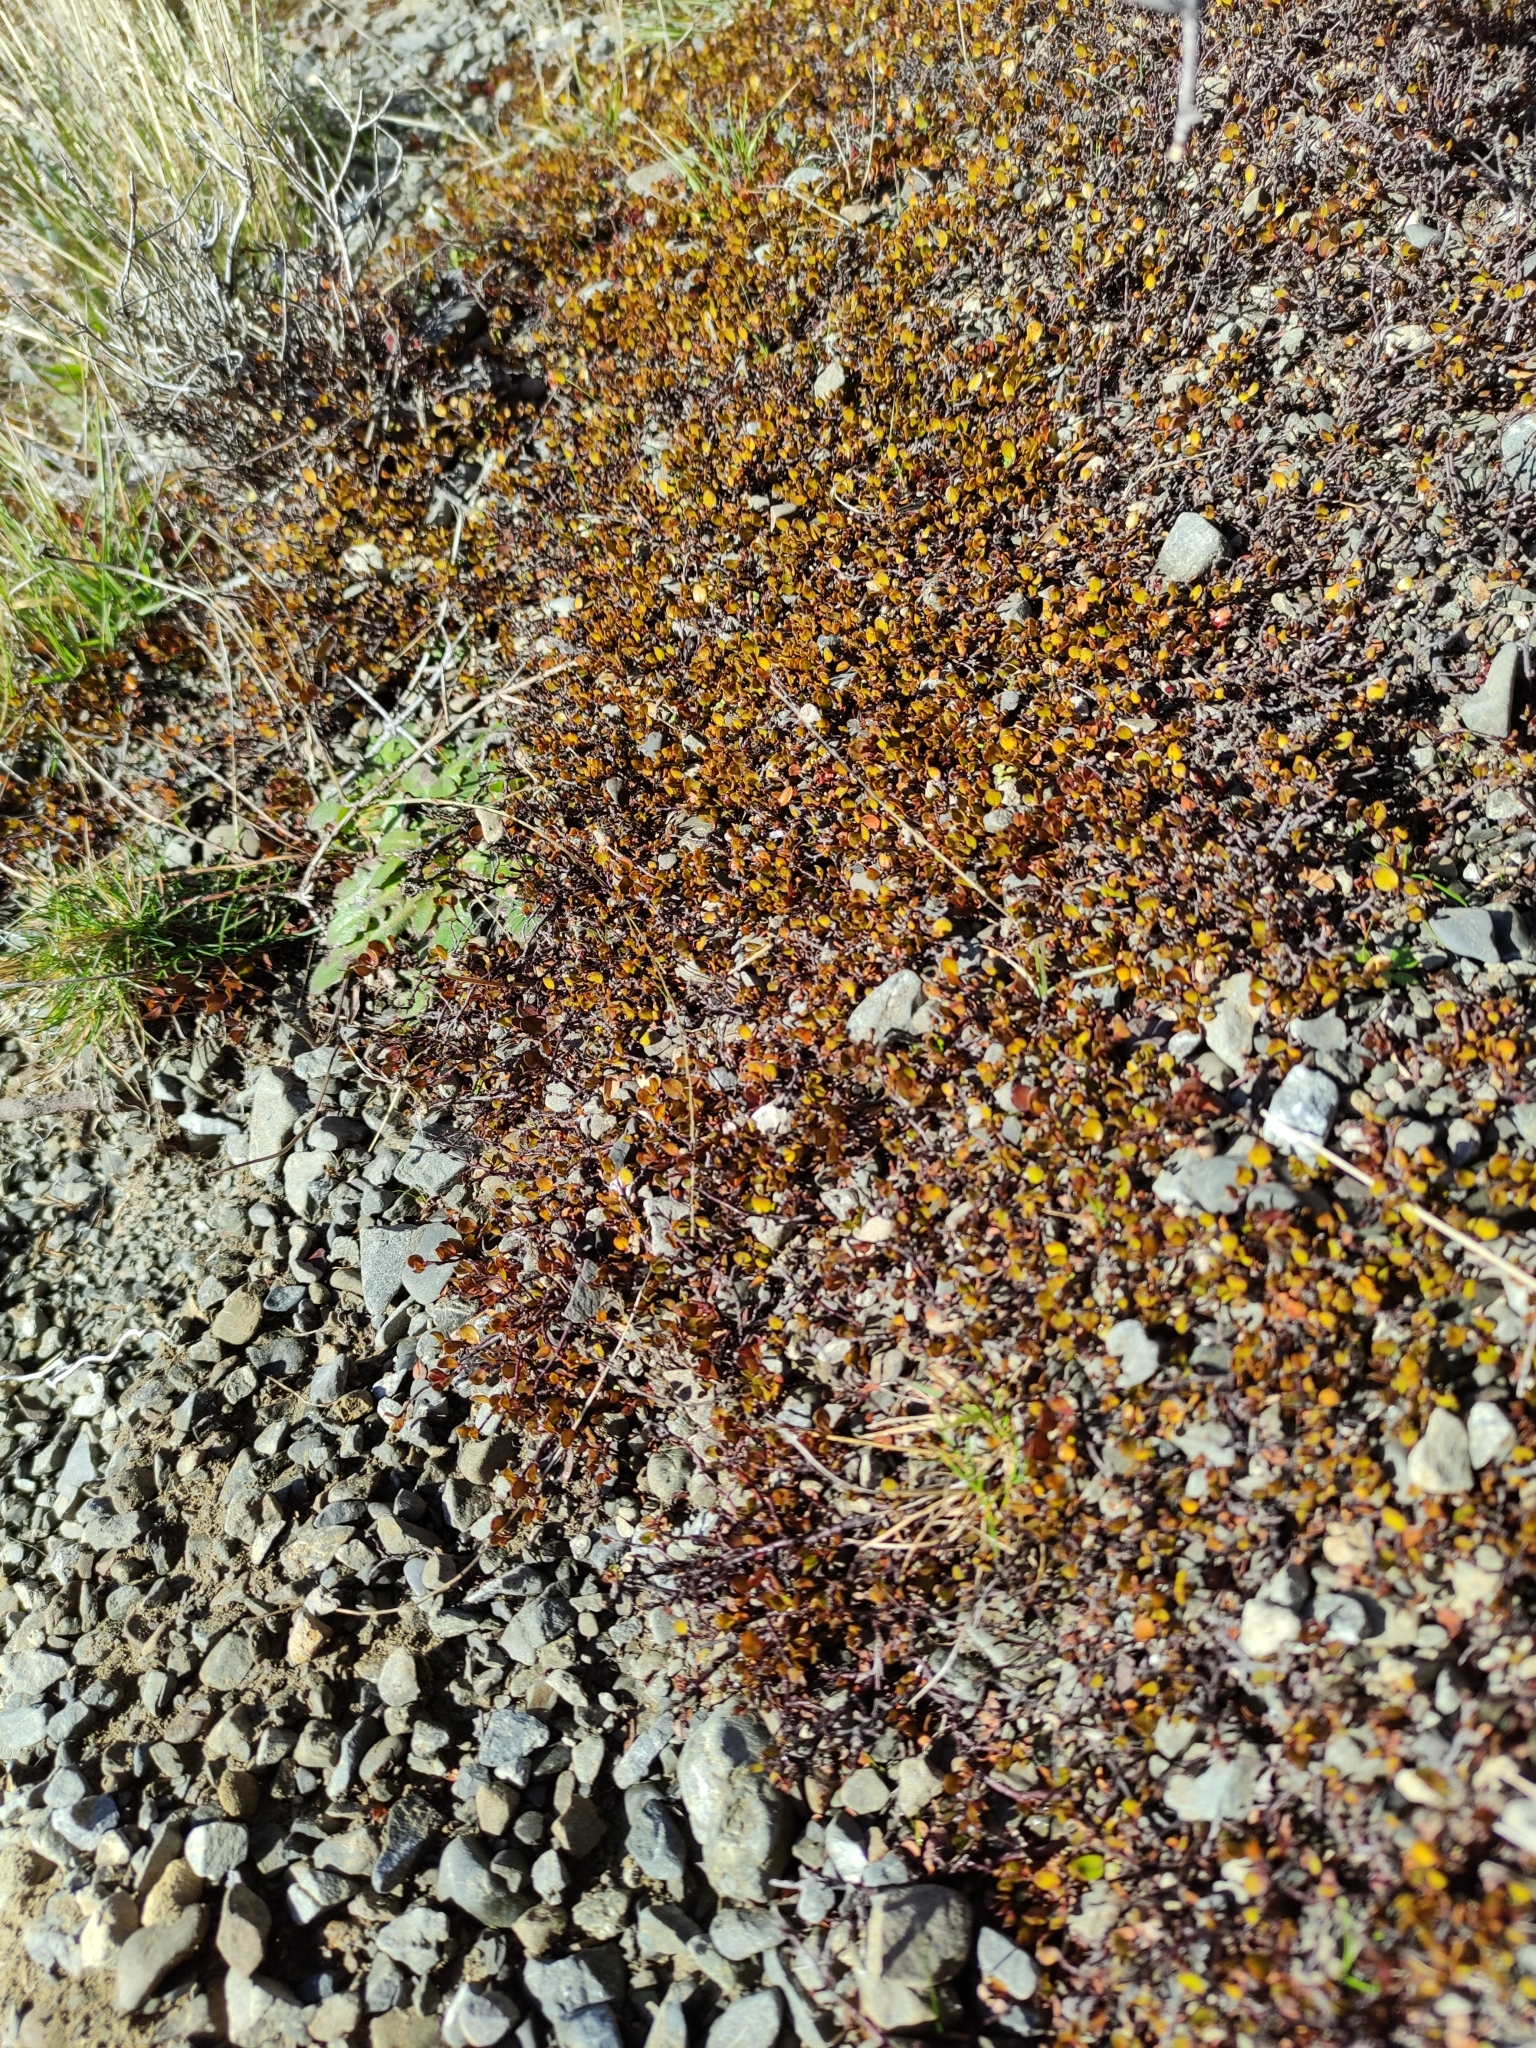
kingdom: Plantae
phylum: Tracheophyta
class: Magnoliopsida
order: Caryophyllales
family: Polygonaceae
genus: Muehlenbeckia
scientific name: Muehlenbeckia axillaris
